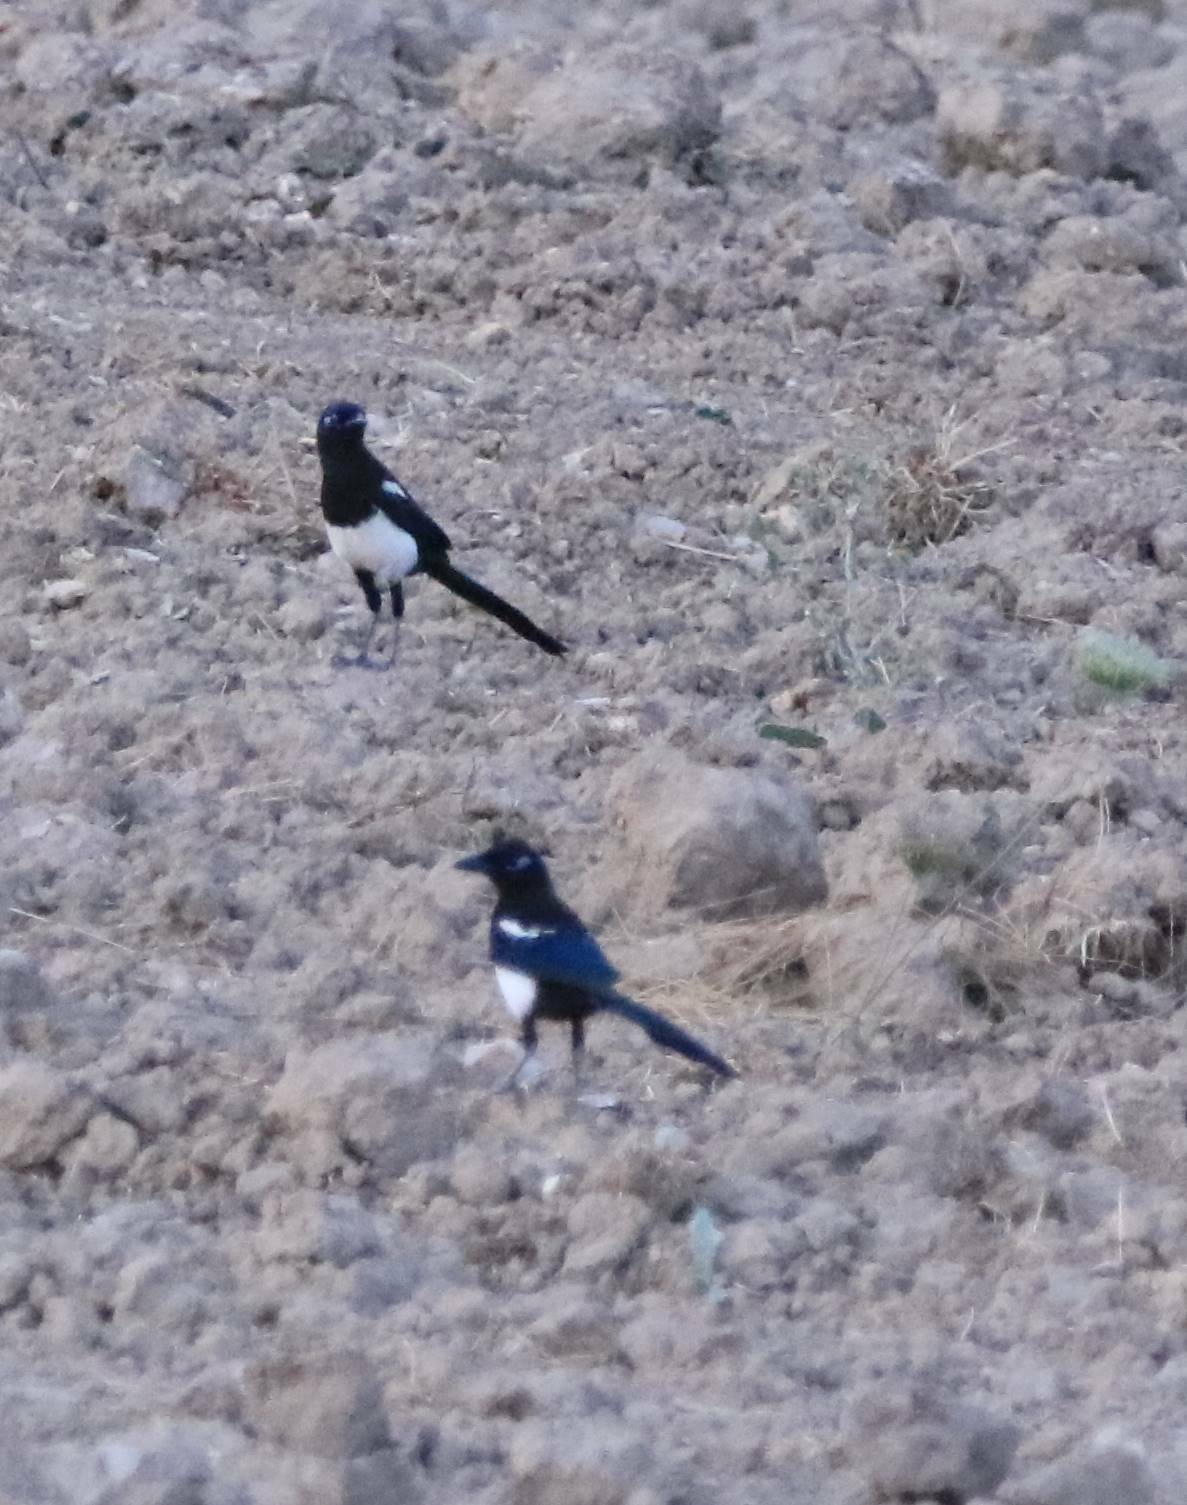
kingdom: Animalia
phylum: Chordata
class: Aves
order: Passeriformes
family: Corvidae
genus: Pica
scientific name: Pica mauritanica
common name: Maghreb magpie
